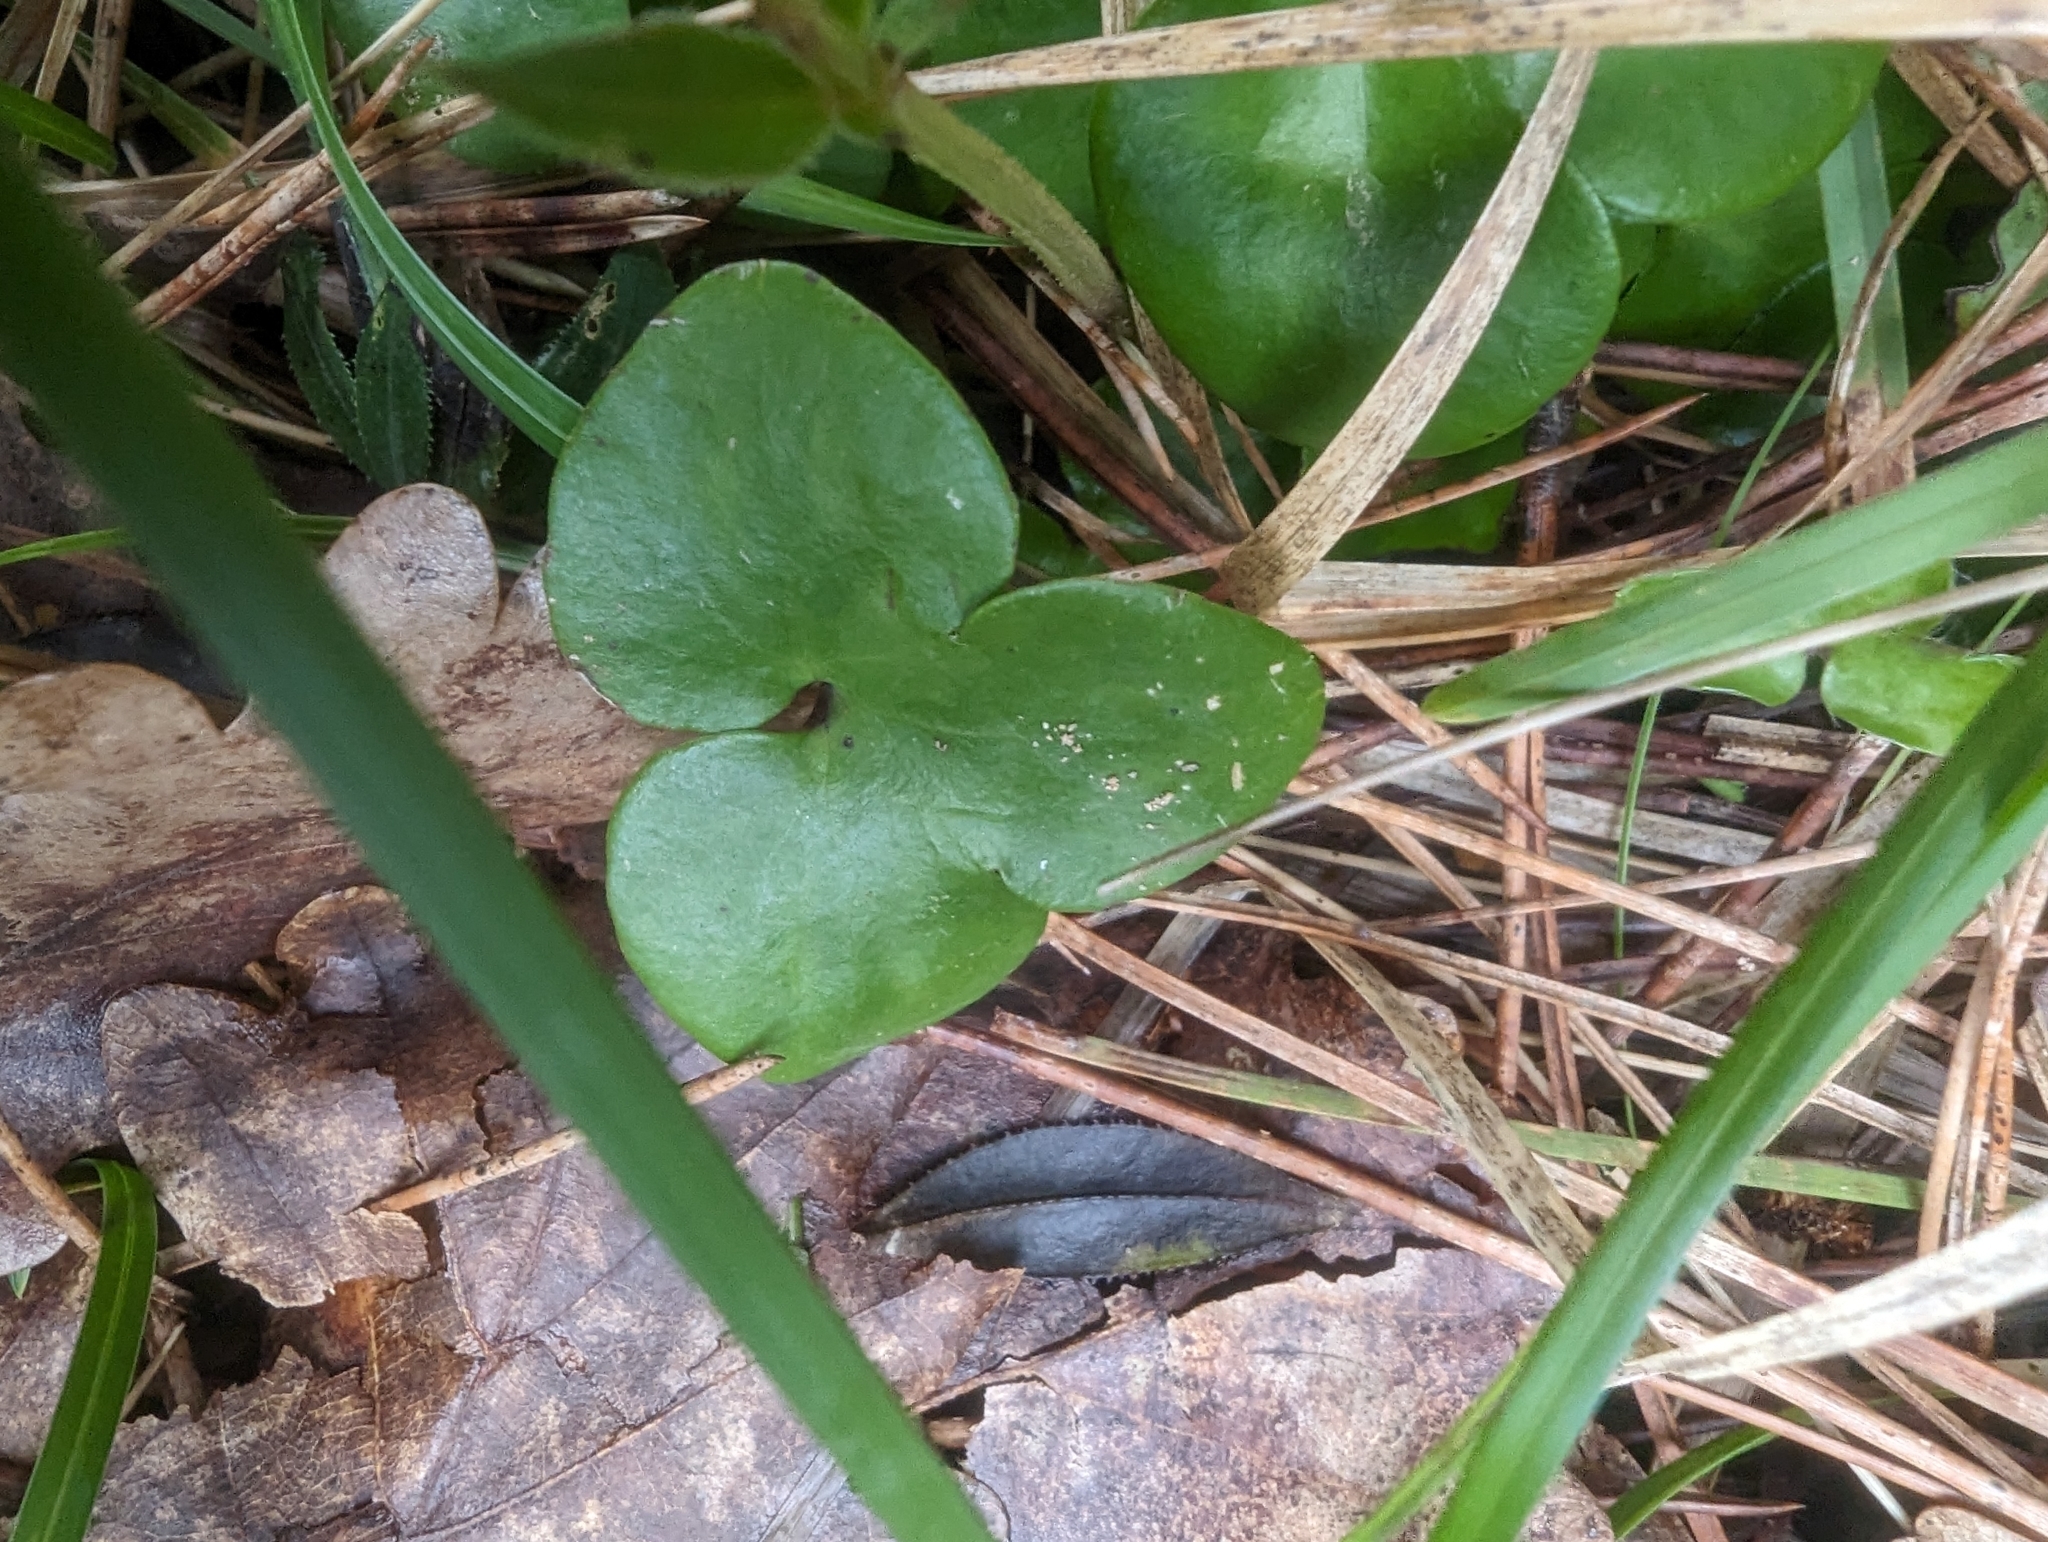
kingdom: Plantae
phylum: Tracheophyta
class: Magnoliopsida
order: Ranunculales
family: Ranunculaceae
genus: Hepatica
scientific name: Hepatica nobilis
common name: Liverleaf
